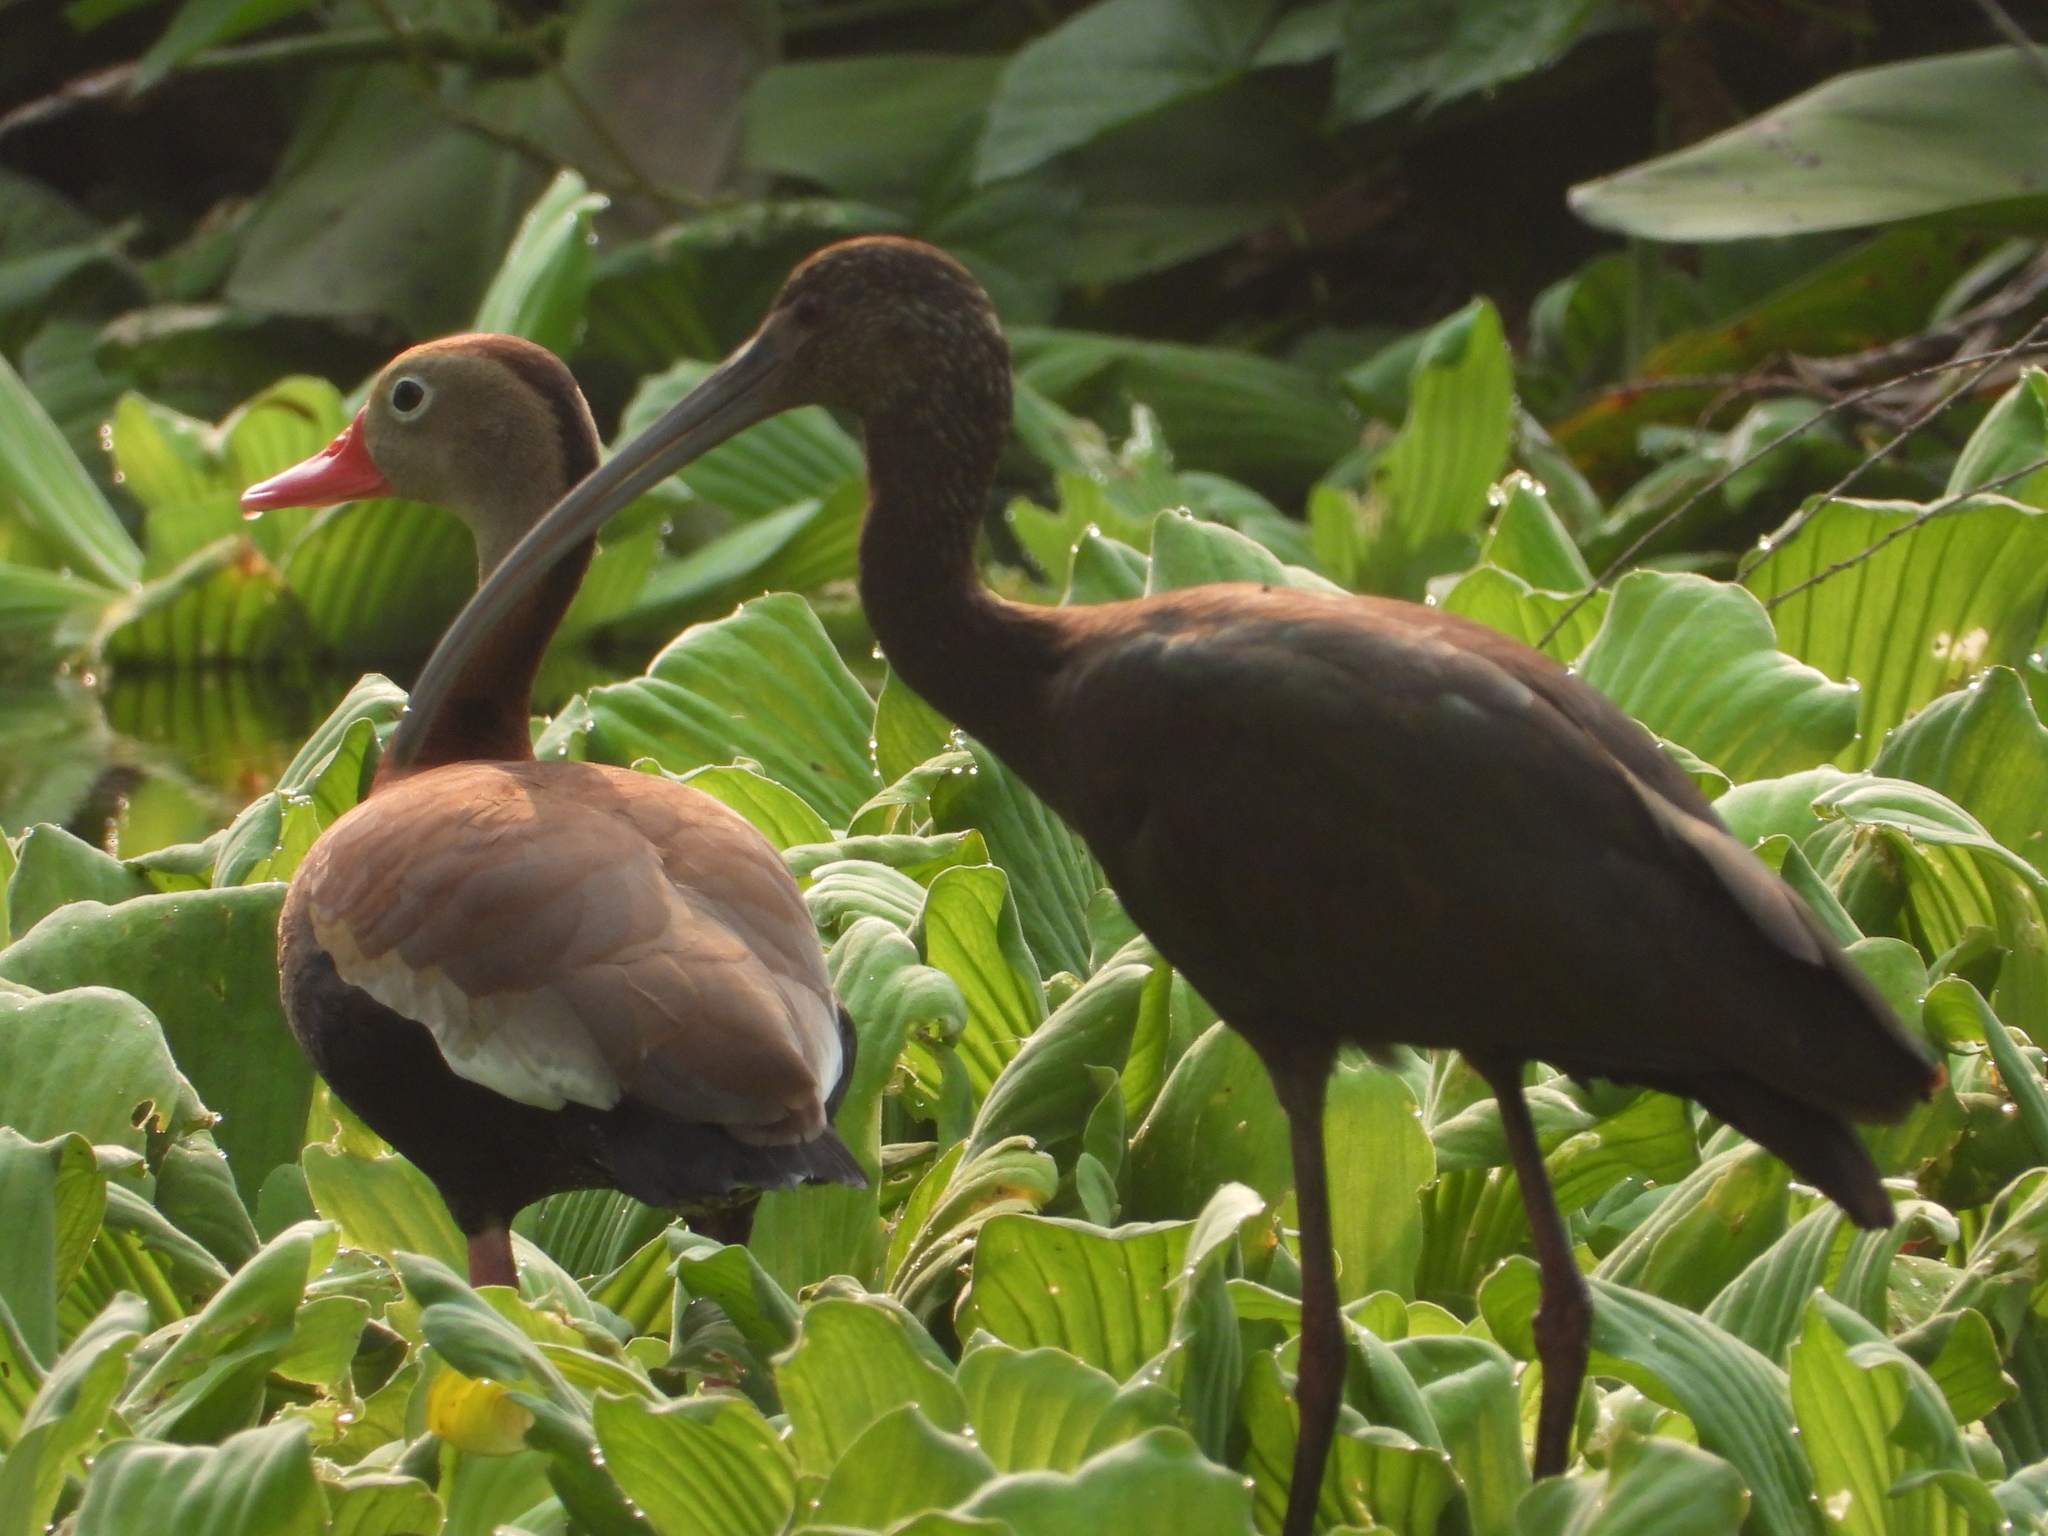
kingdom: Animalia
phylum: Chordata
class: Aves
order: Pelecaniformes
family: Threskiornithidae
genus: Plegadis
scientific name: Plegadis chihi
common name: White-faced ibis
